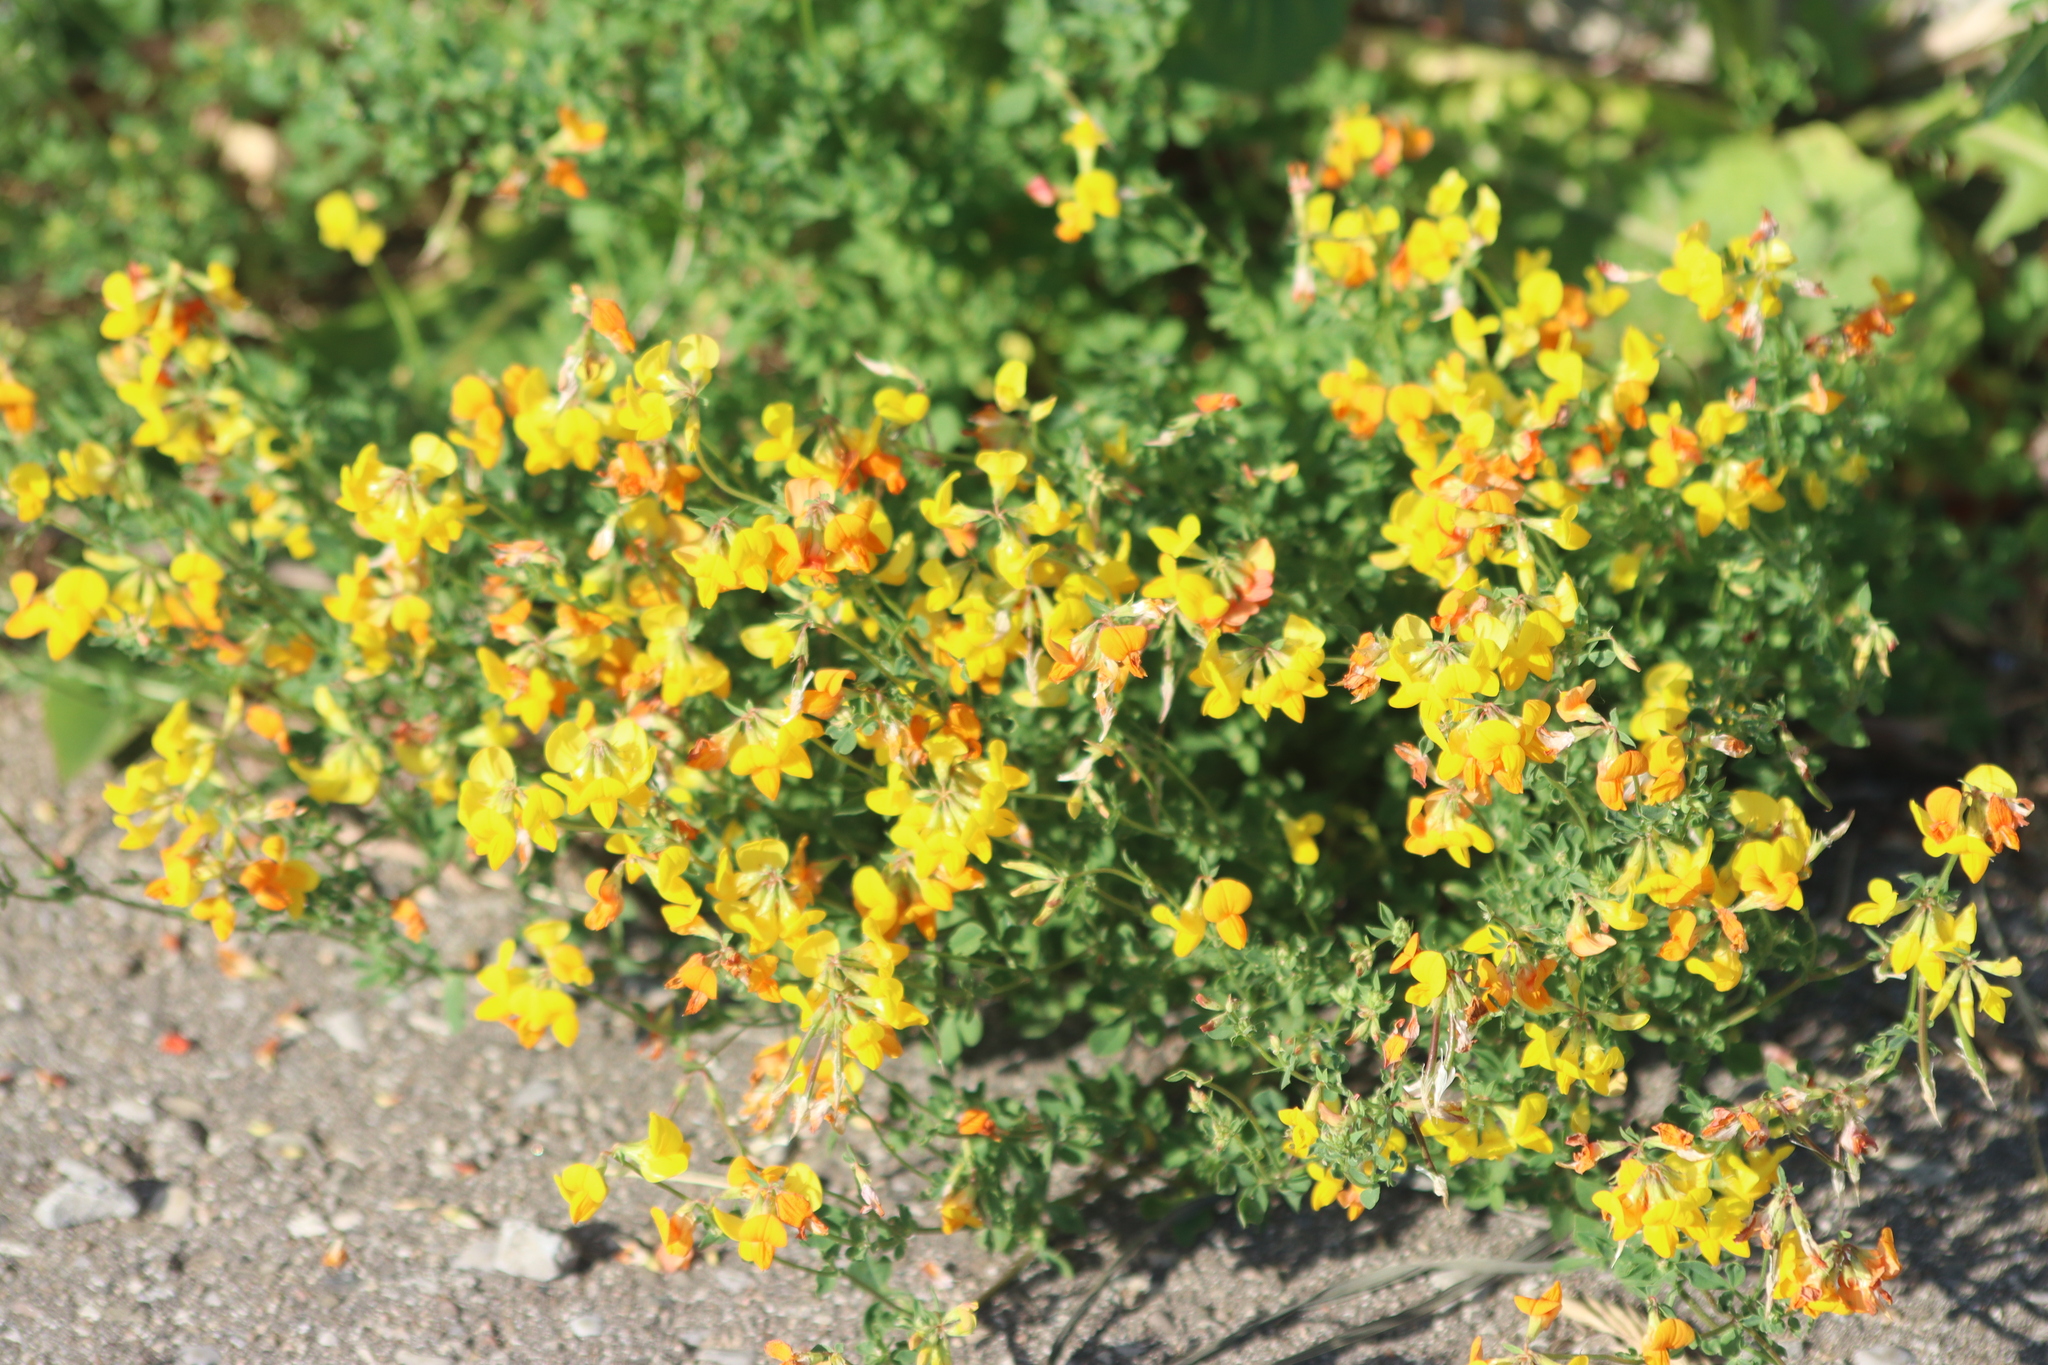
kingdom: Plantae
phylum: Tracheophyta
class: Magnoliopsida
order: Fabales
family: Fabaceae
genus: Lotus
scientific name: Lotus corniculatus
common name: Common bird's-foot-trefoil
